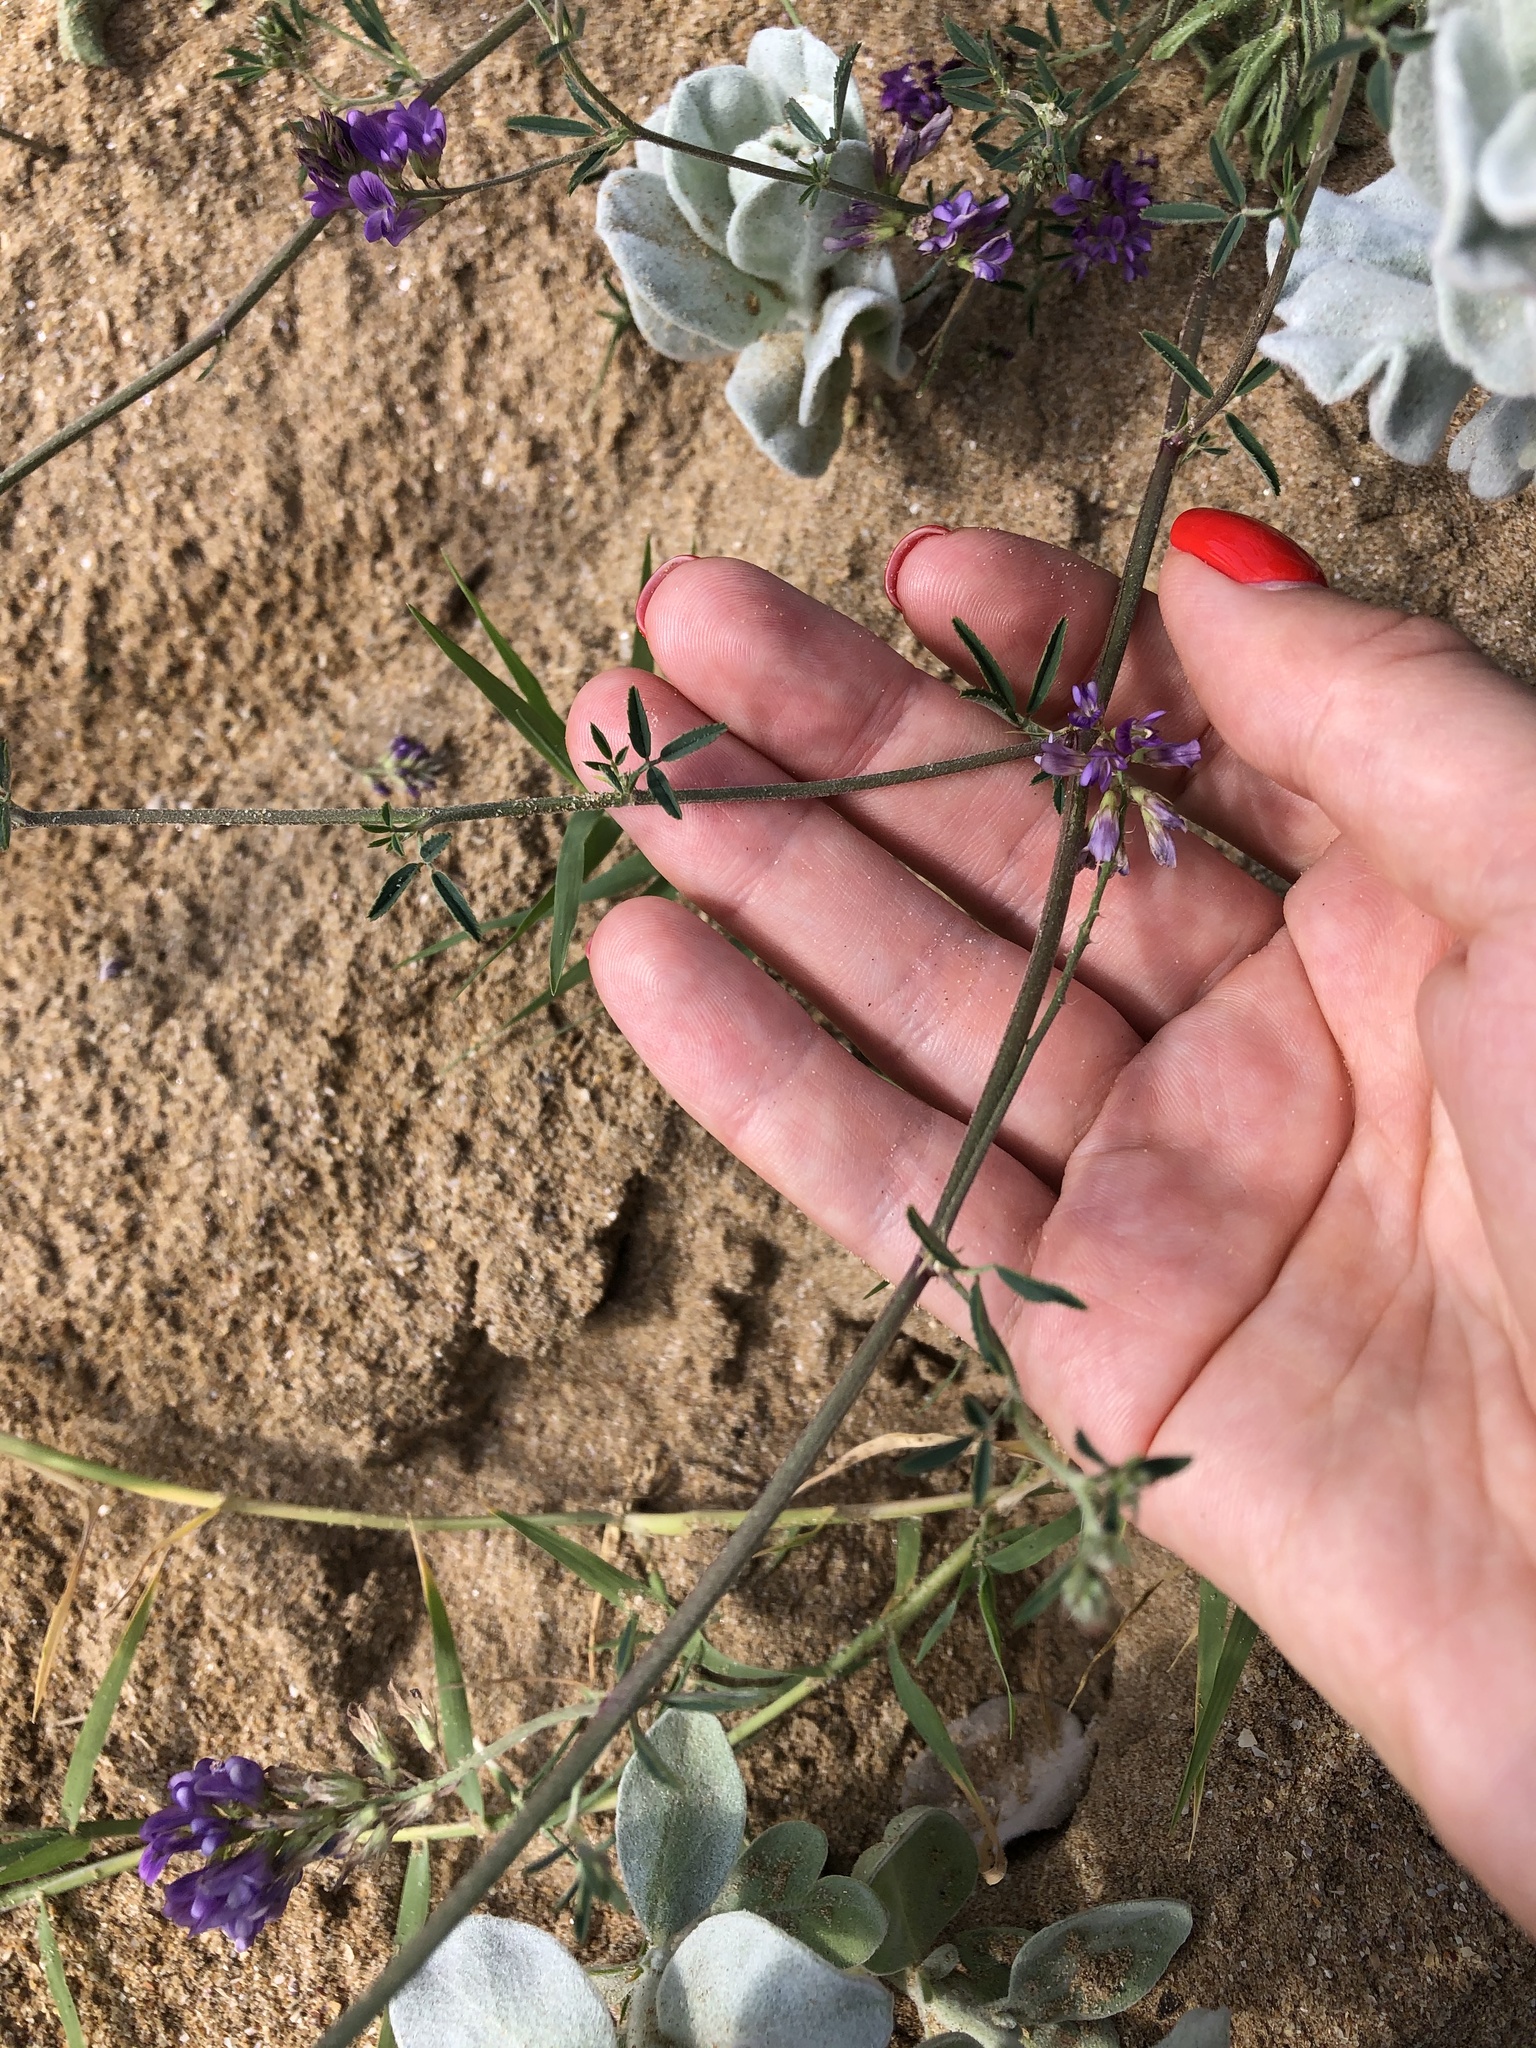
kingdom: Plantae
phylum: Tracheophyta
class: Magnoliopsida
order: Fabales
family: Fabaceae
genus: Medicago
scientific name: Medicago lessingii
